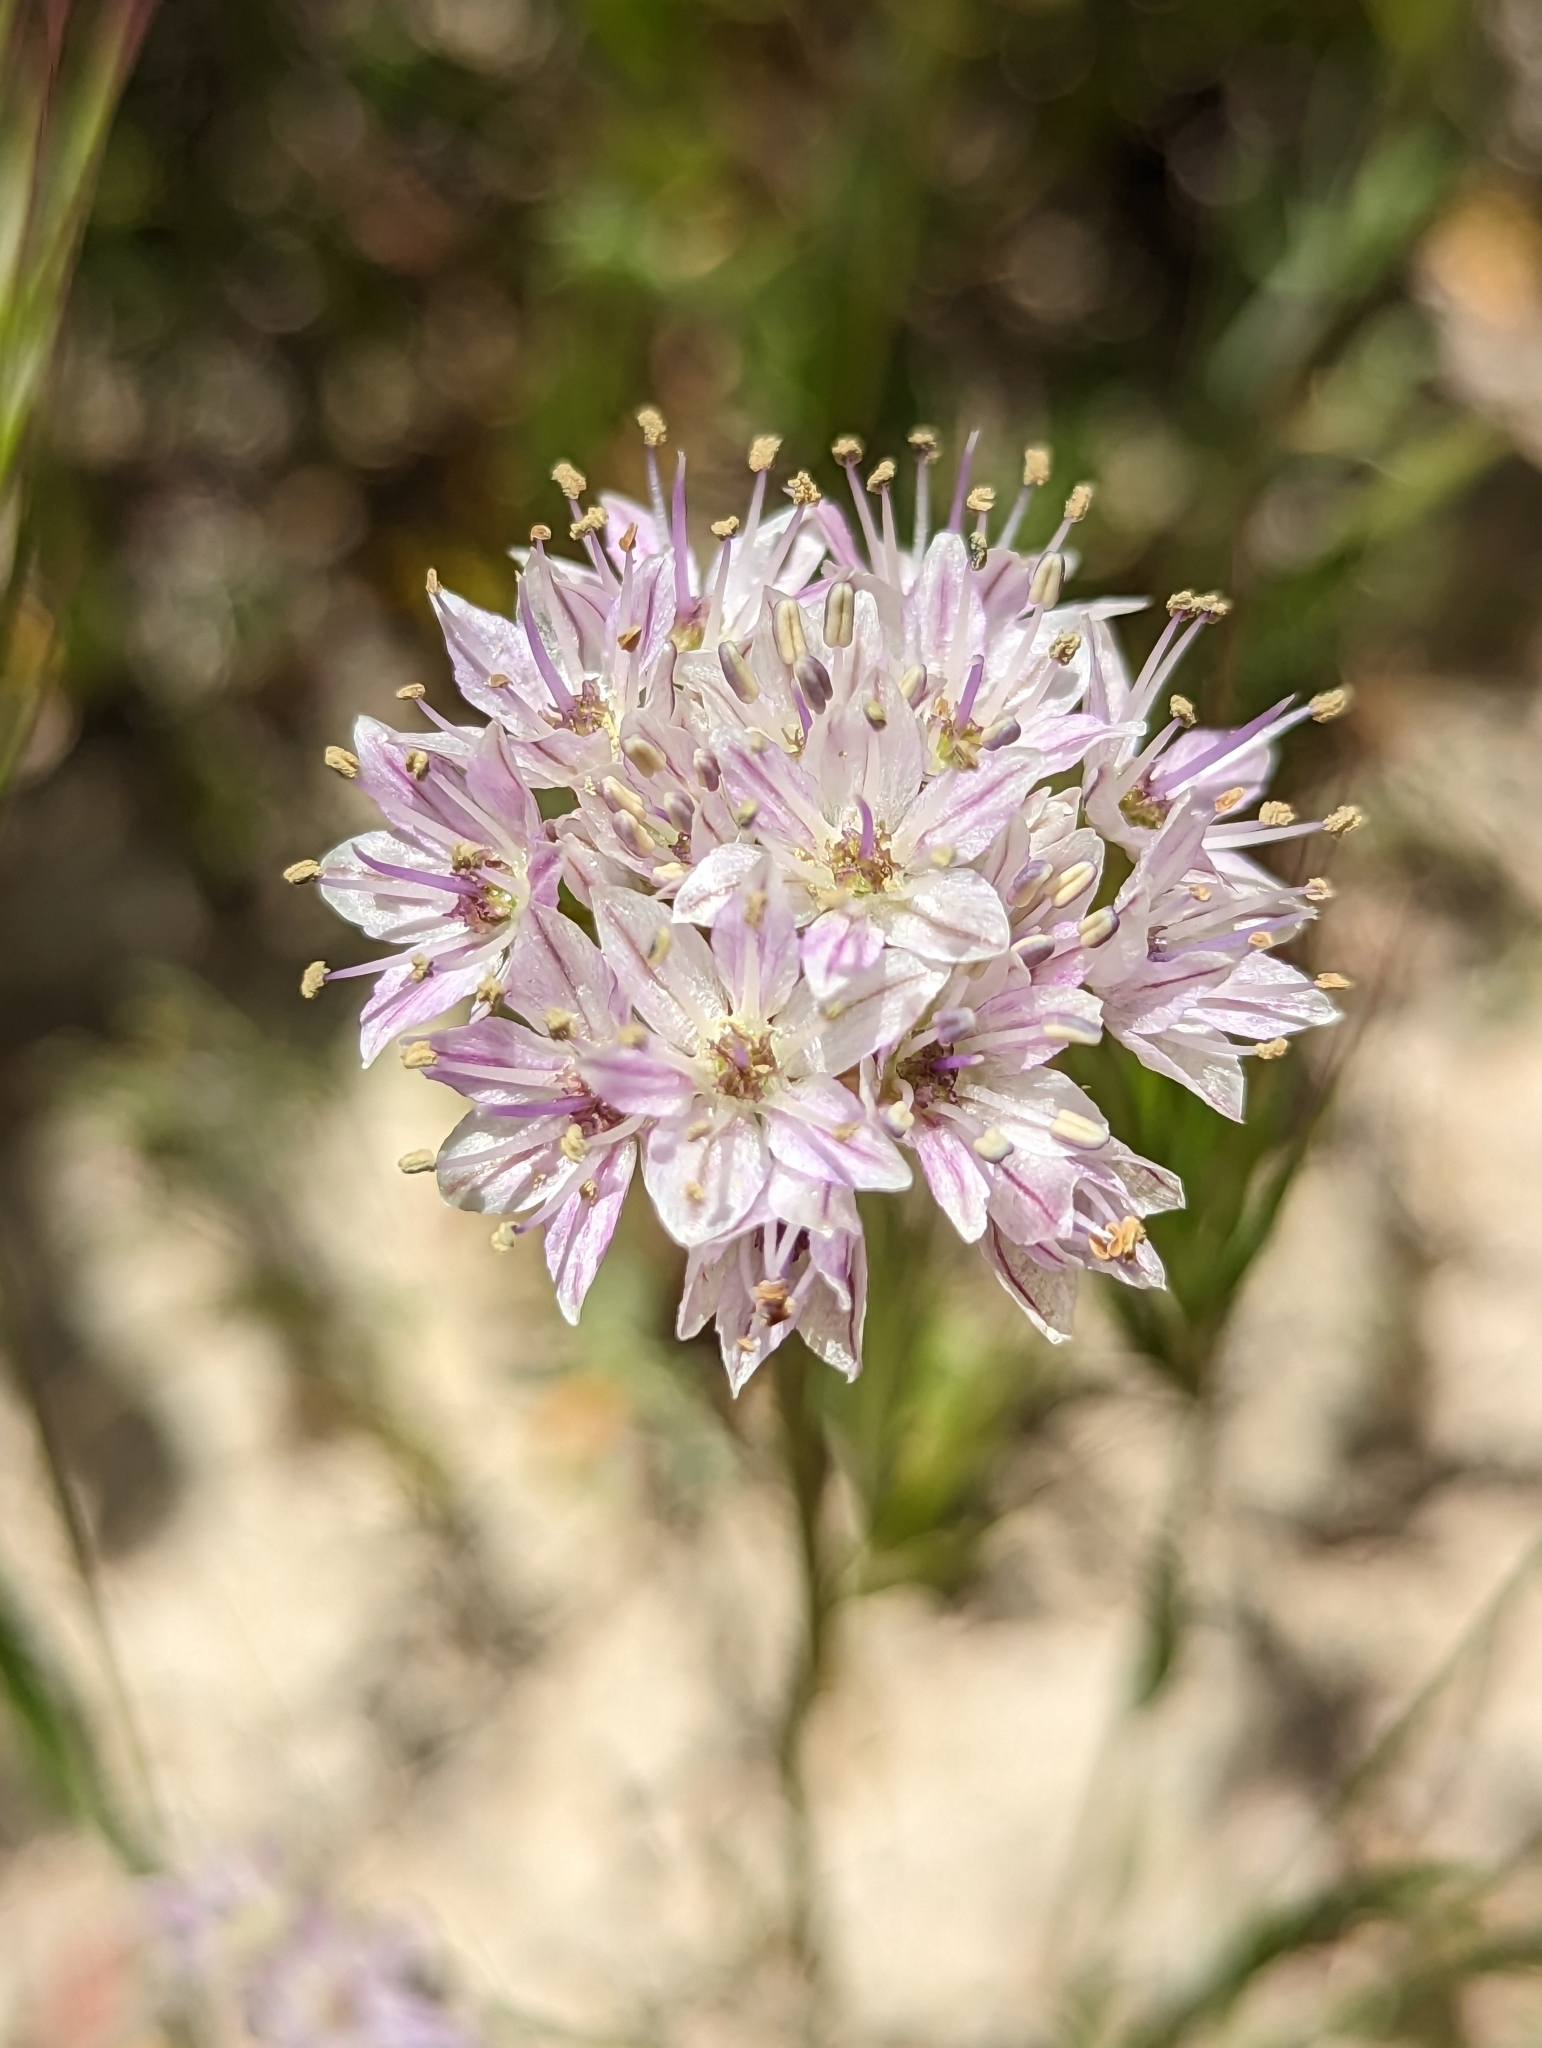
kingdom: Plantae
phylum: Tracheophyta
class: Liliopsida
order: Asparagales
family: Amaryllidaceae
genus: Allium
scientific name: Allium howellii
